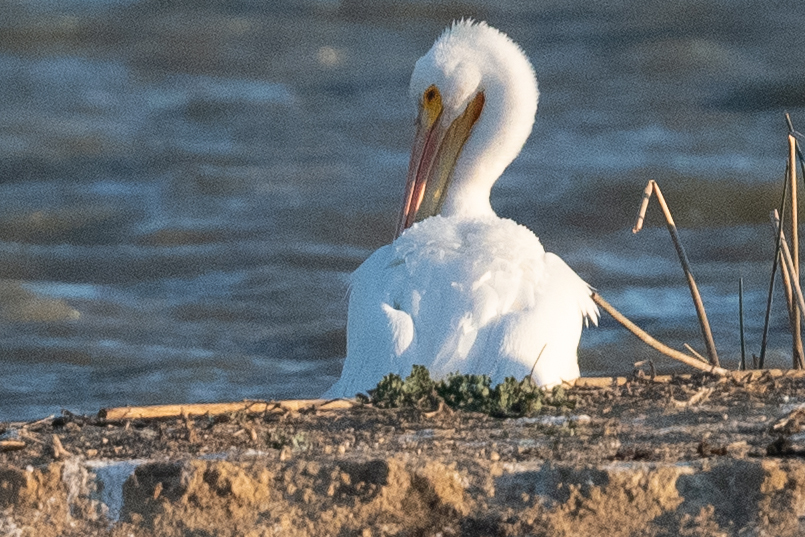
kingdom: Animalia
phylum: Chordata
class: Aves
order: Pelecaniformes
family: Pelecanidae
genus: Pelecanus
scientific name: Pelecanus erythrorhynchos
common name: American white pelican
